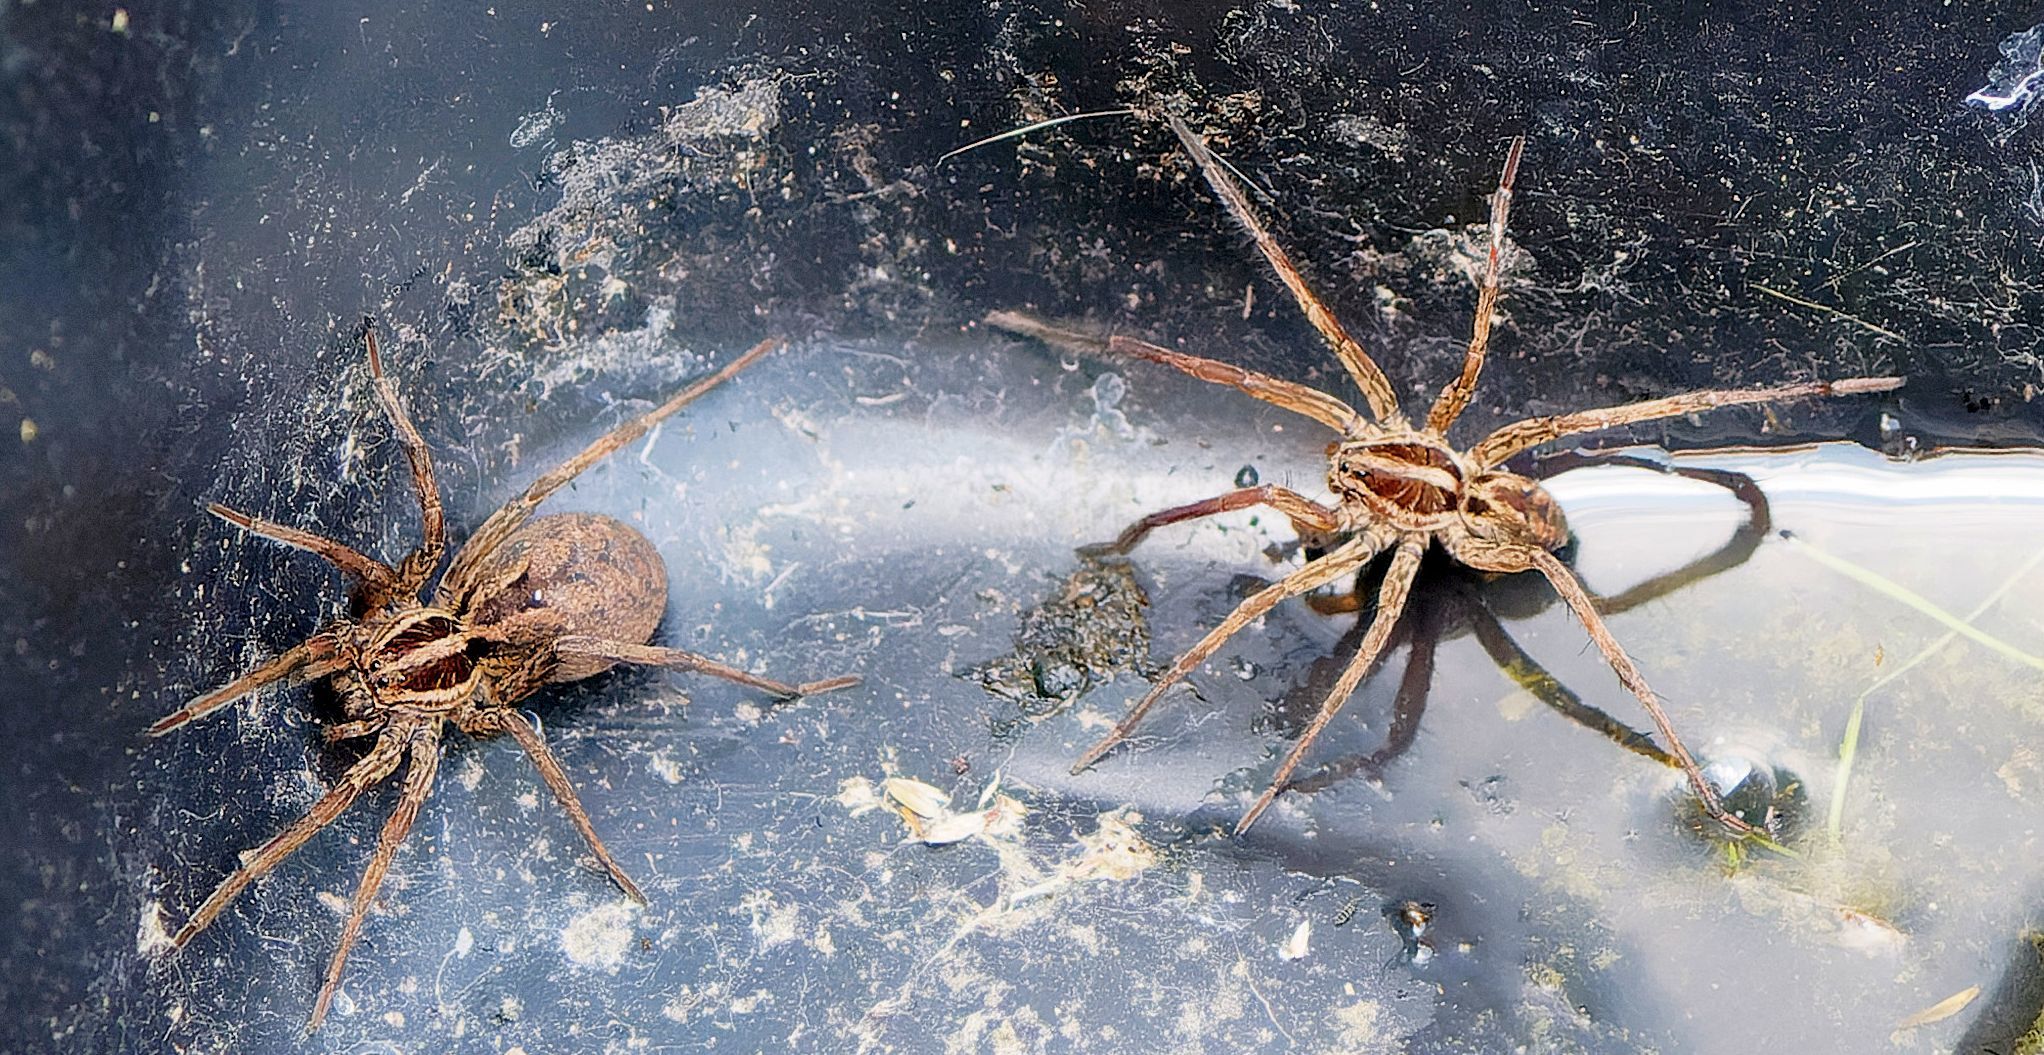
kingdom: Animalia
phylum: Arthropoda
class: Arachnida
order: Araneae
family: Lycosidae
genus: Hogna
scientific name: Hogna radiata
